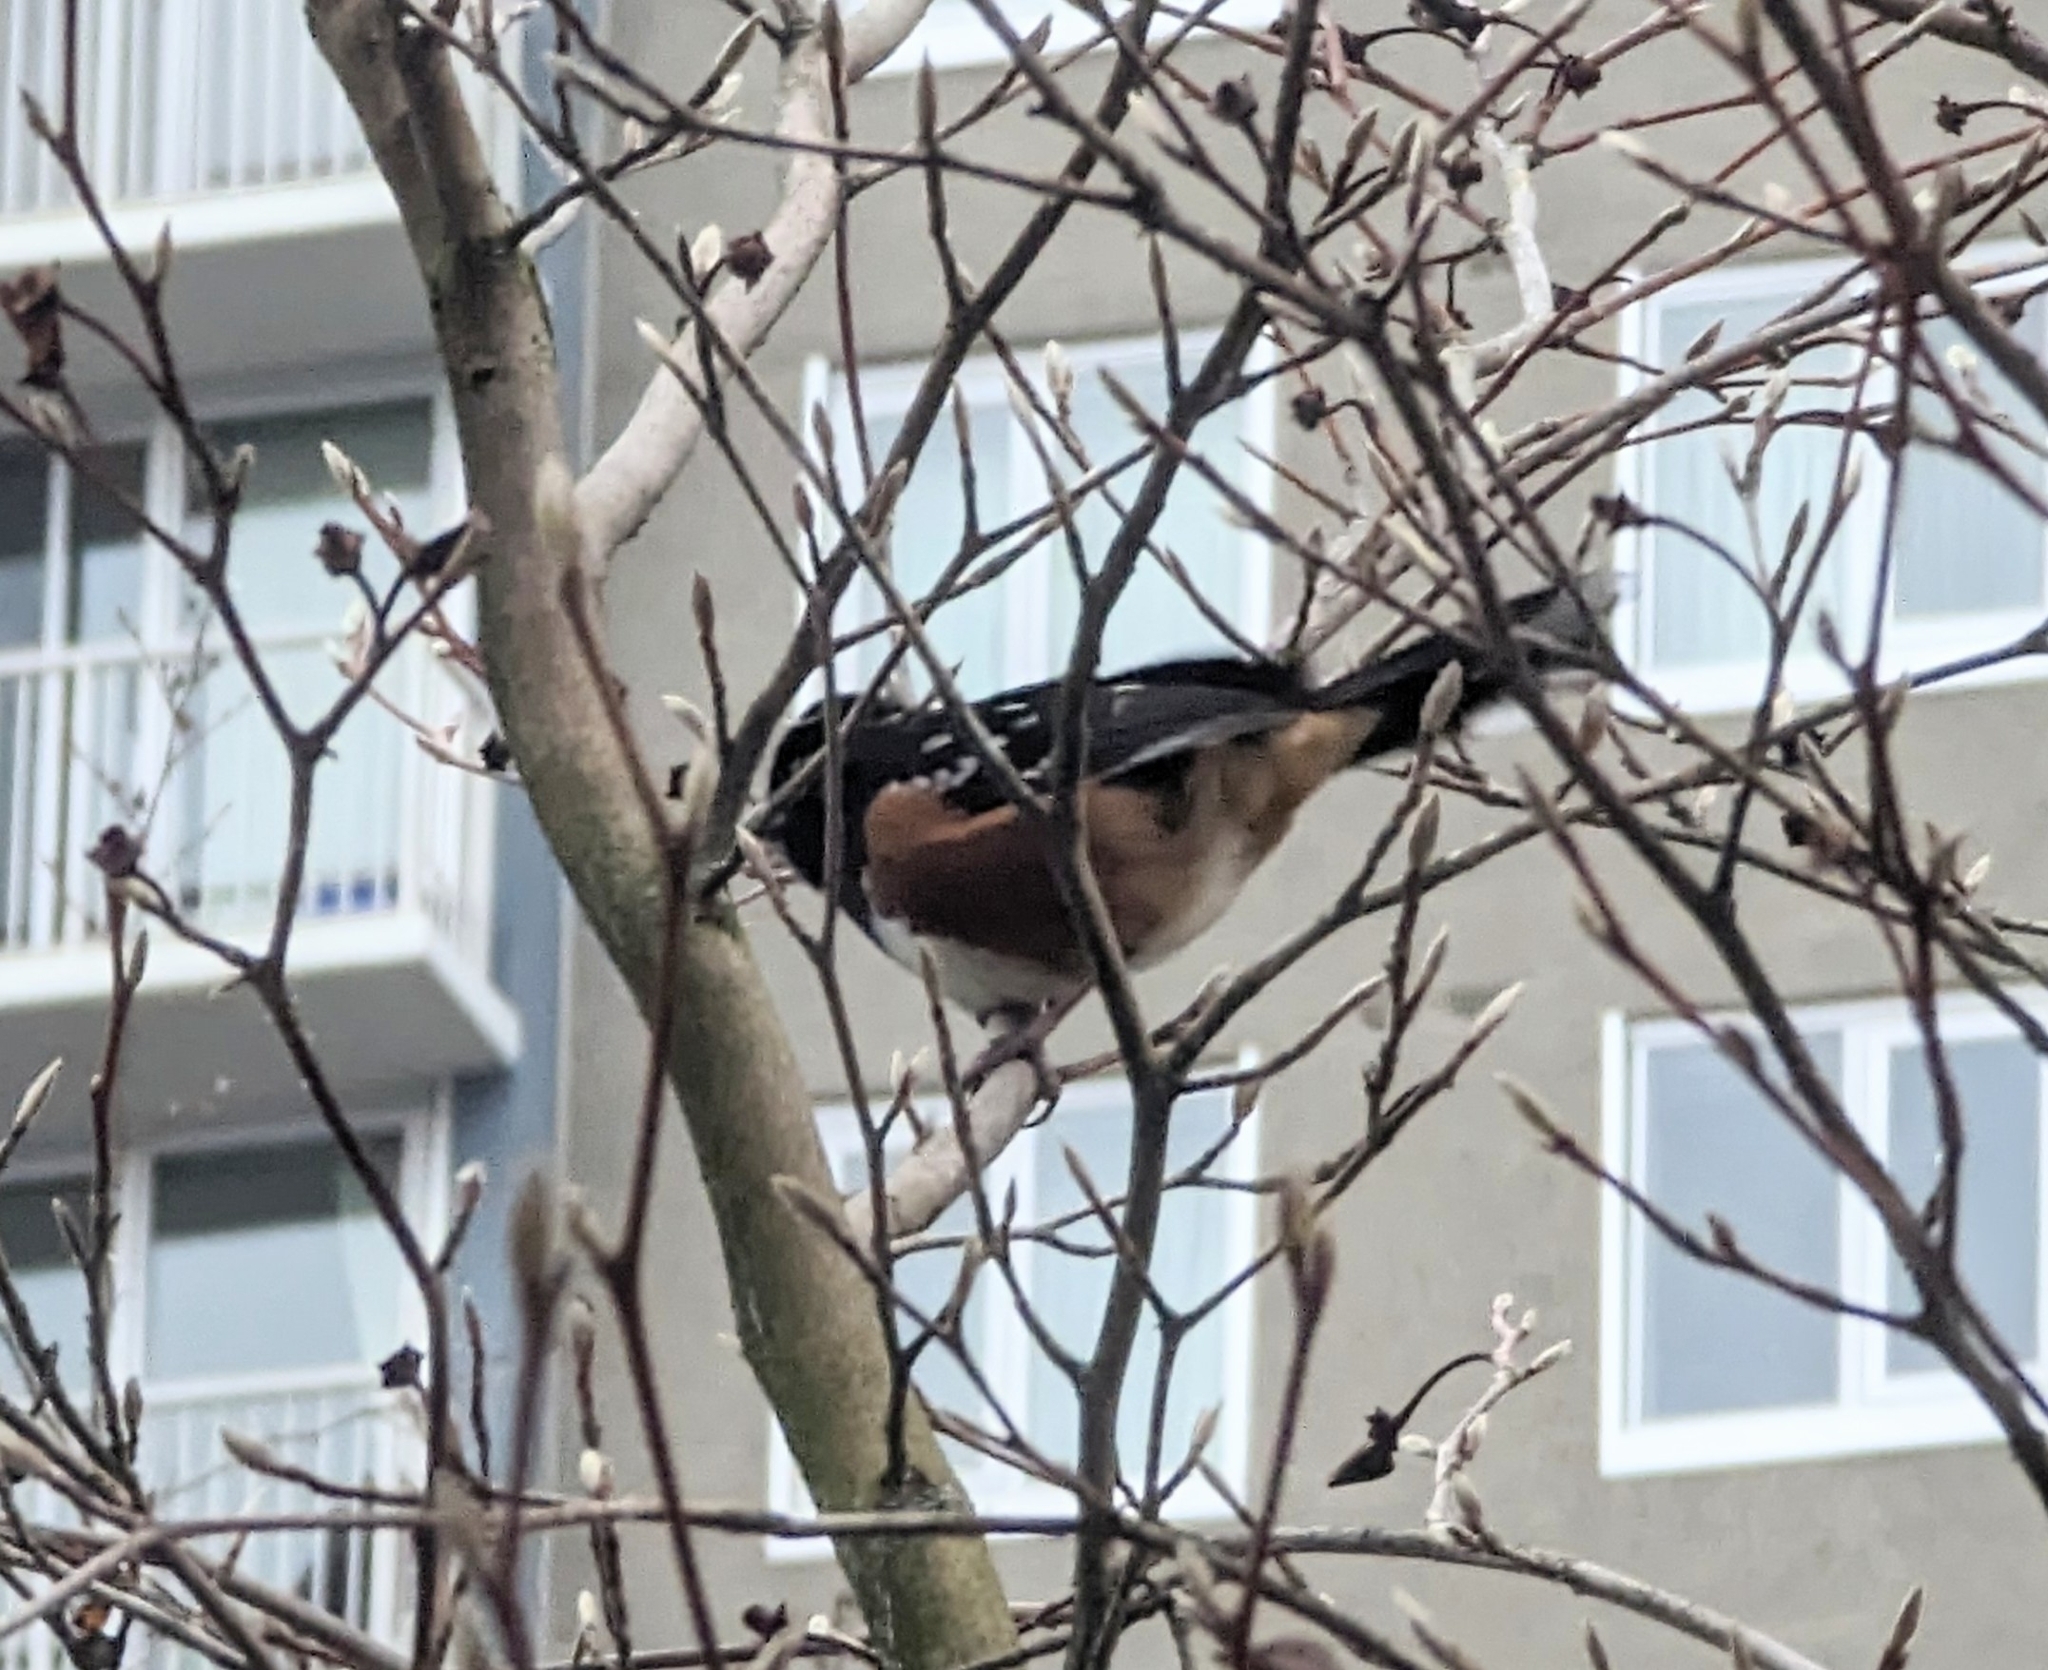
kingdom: Animalia
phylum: Chordata
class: Aves
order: Passeriformes
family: Passerellidae
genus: Pipilo
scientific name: Pipilo maculatus
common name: Spotted towhee
